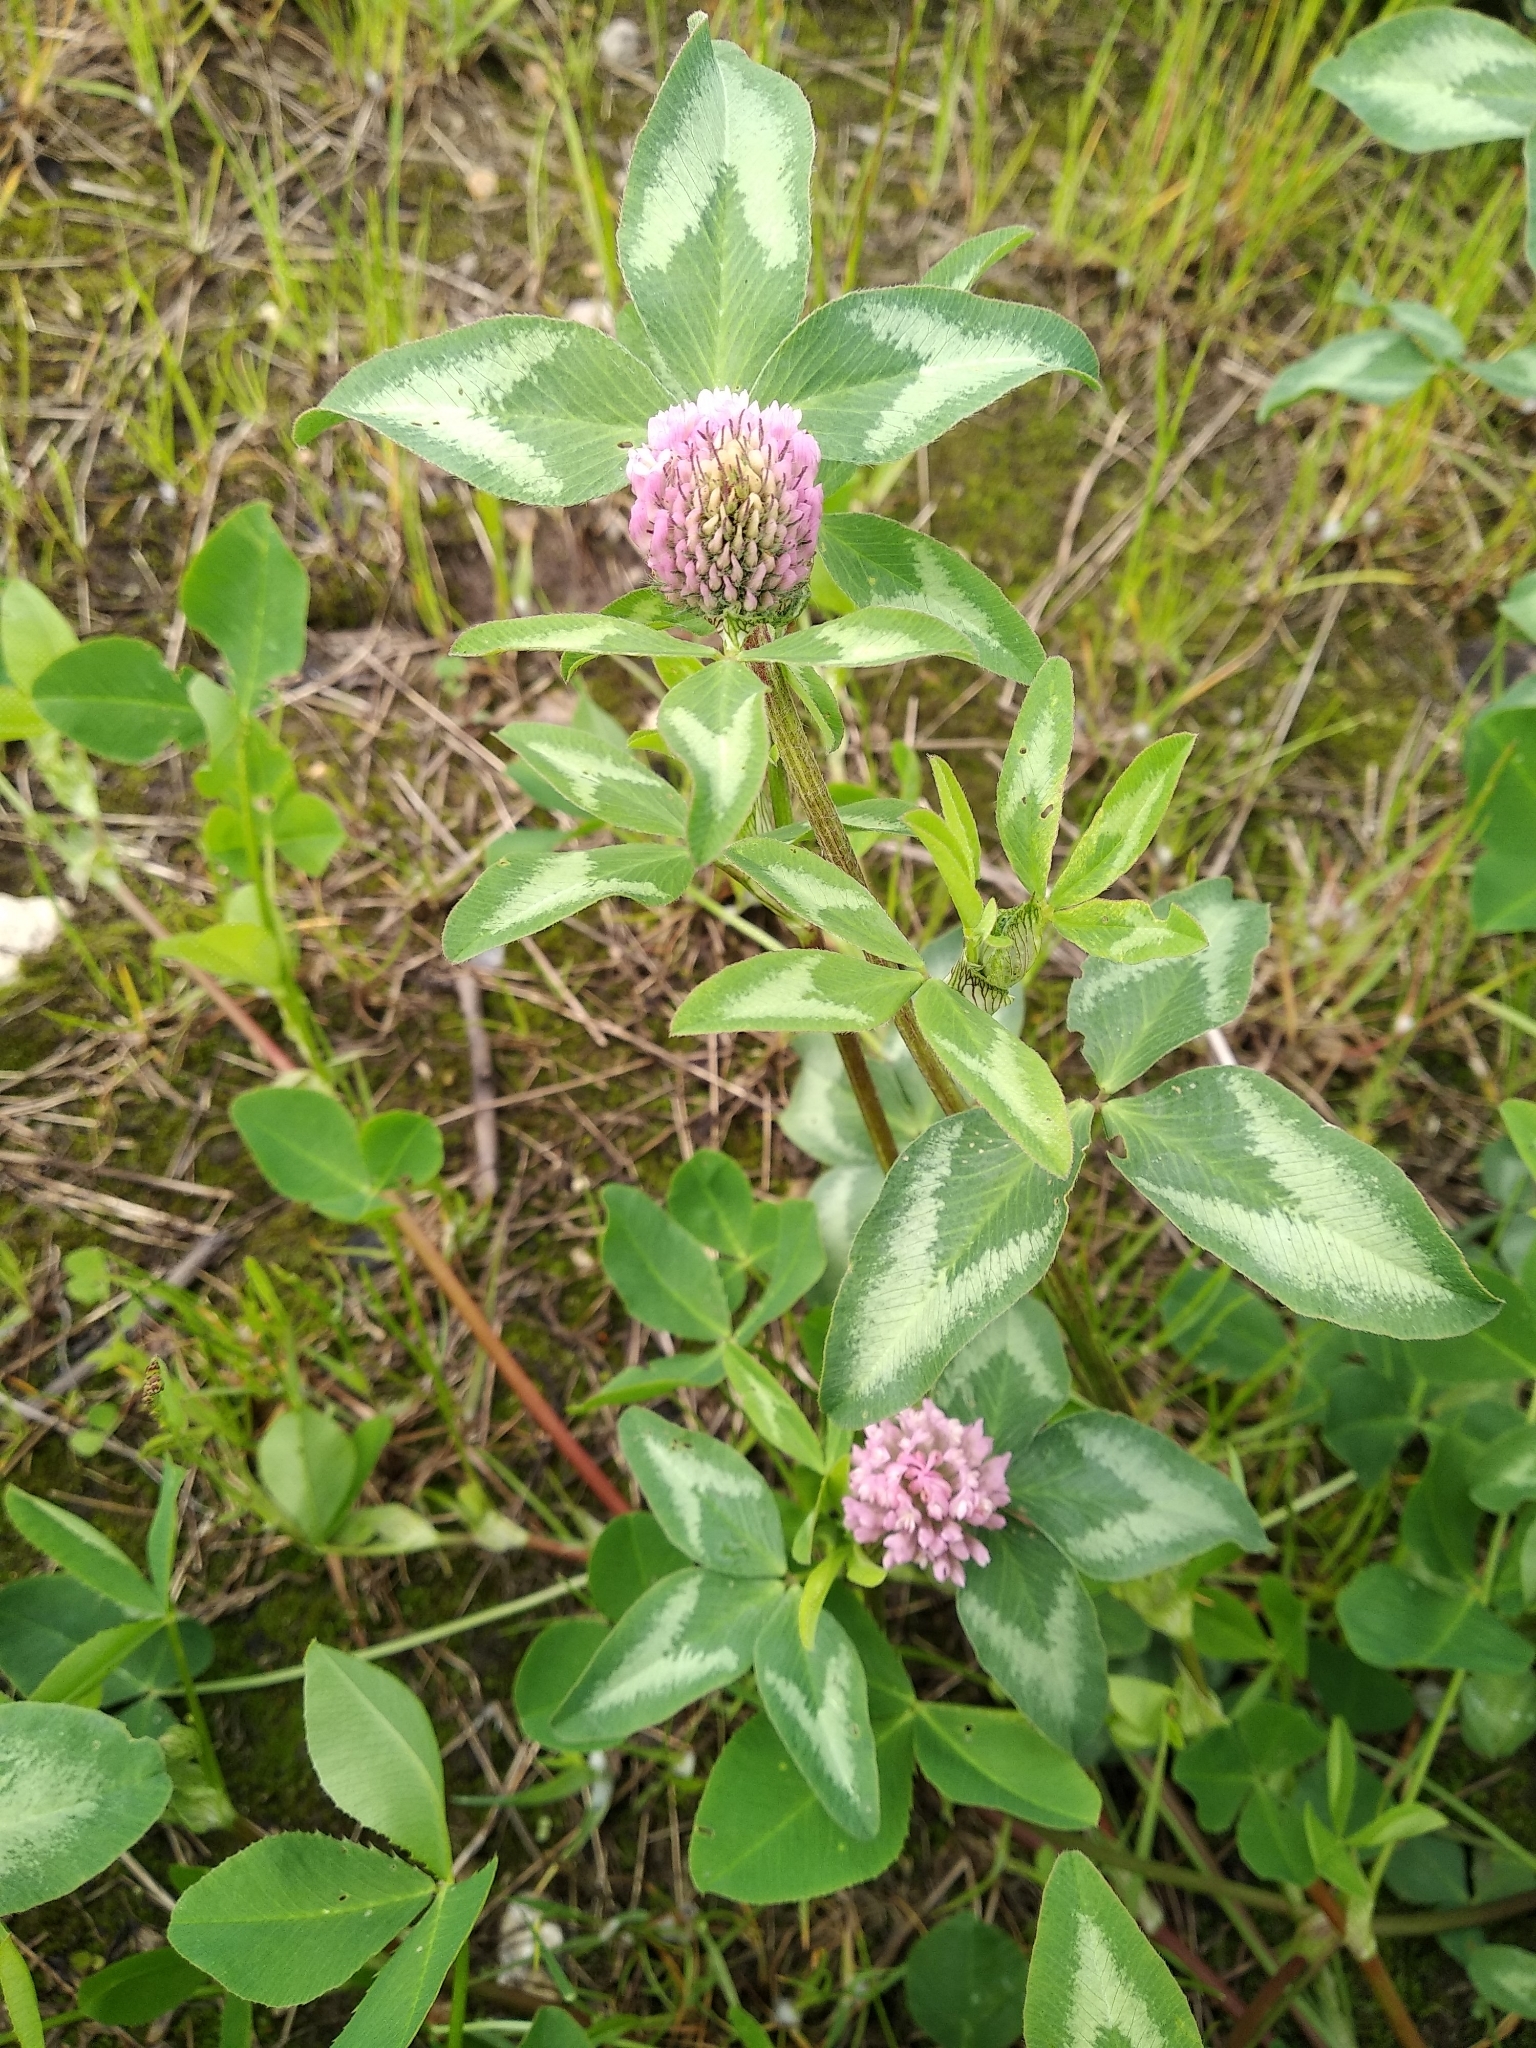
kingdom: Plantae
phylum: Tracheophyta
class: Magnoliopsida
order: Fabales
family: Fabaceae
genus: Trifolium
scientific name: Trifolium pratense
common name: Red clover
